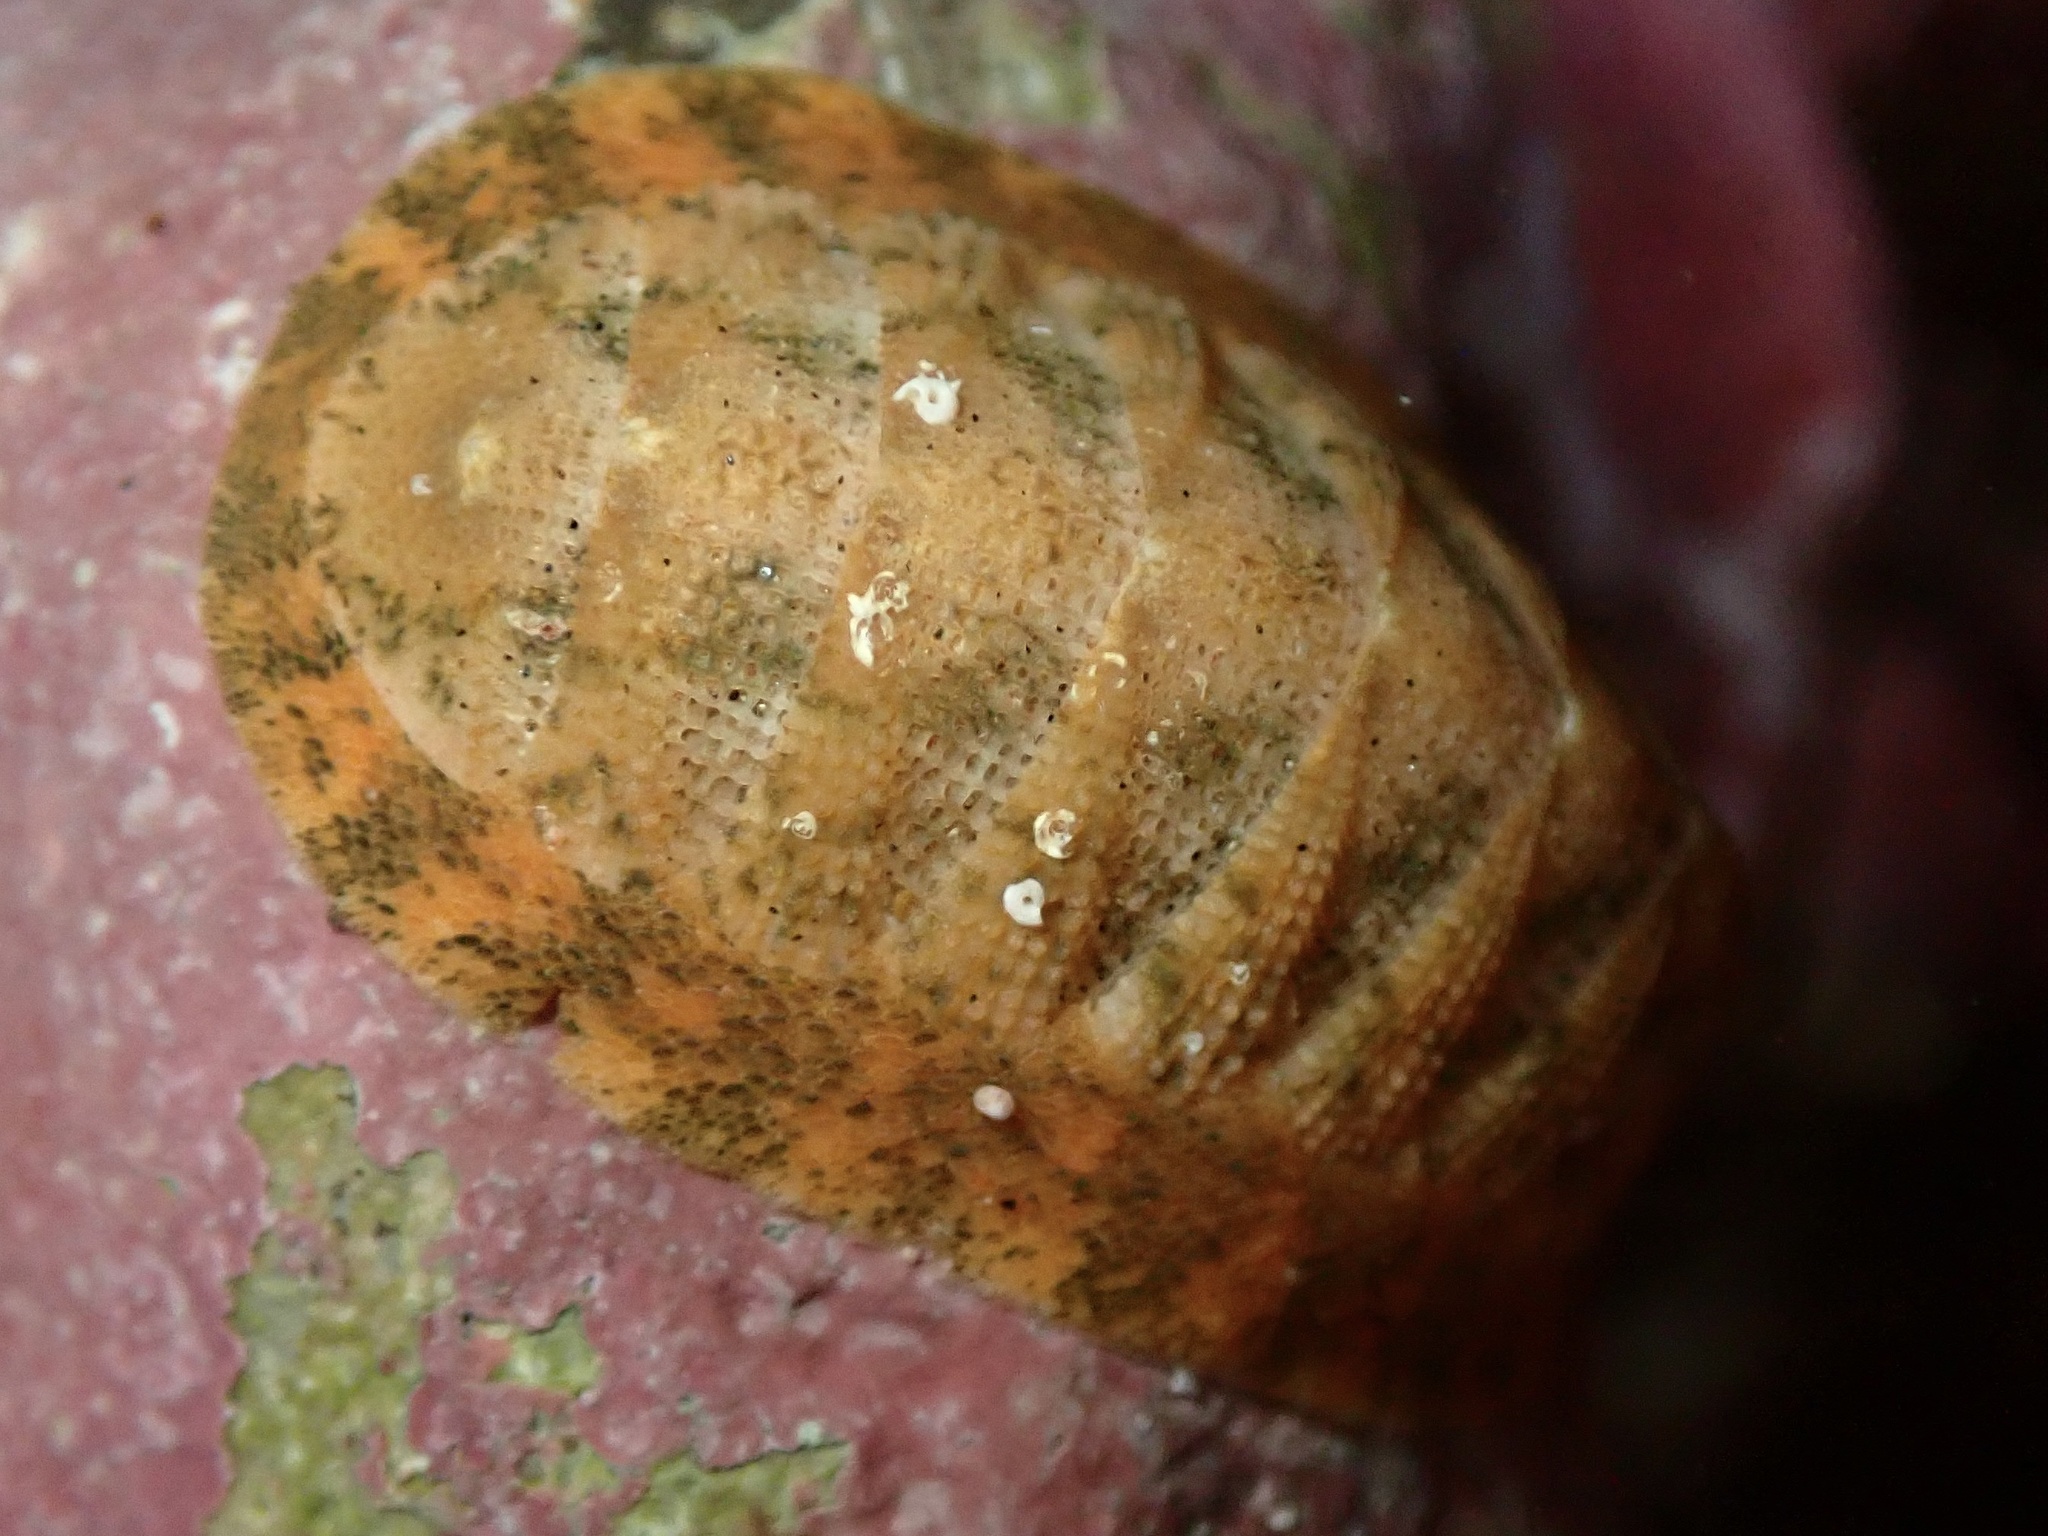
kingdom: Animalia
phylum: Mollusca
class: Polyplacophora
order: Chitonida
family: Ischnochitonidae
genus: Lepidozona
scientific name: Lepidozona pectinulata
